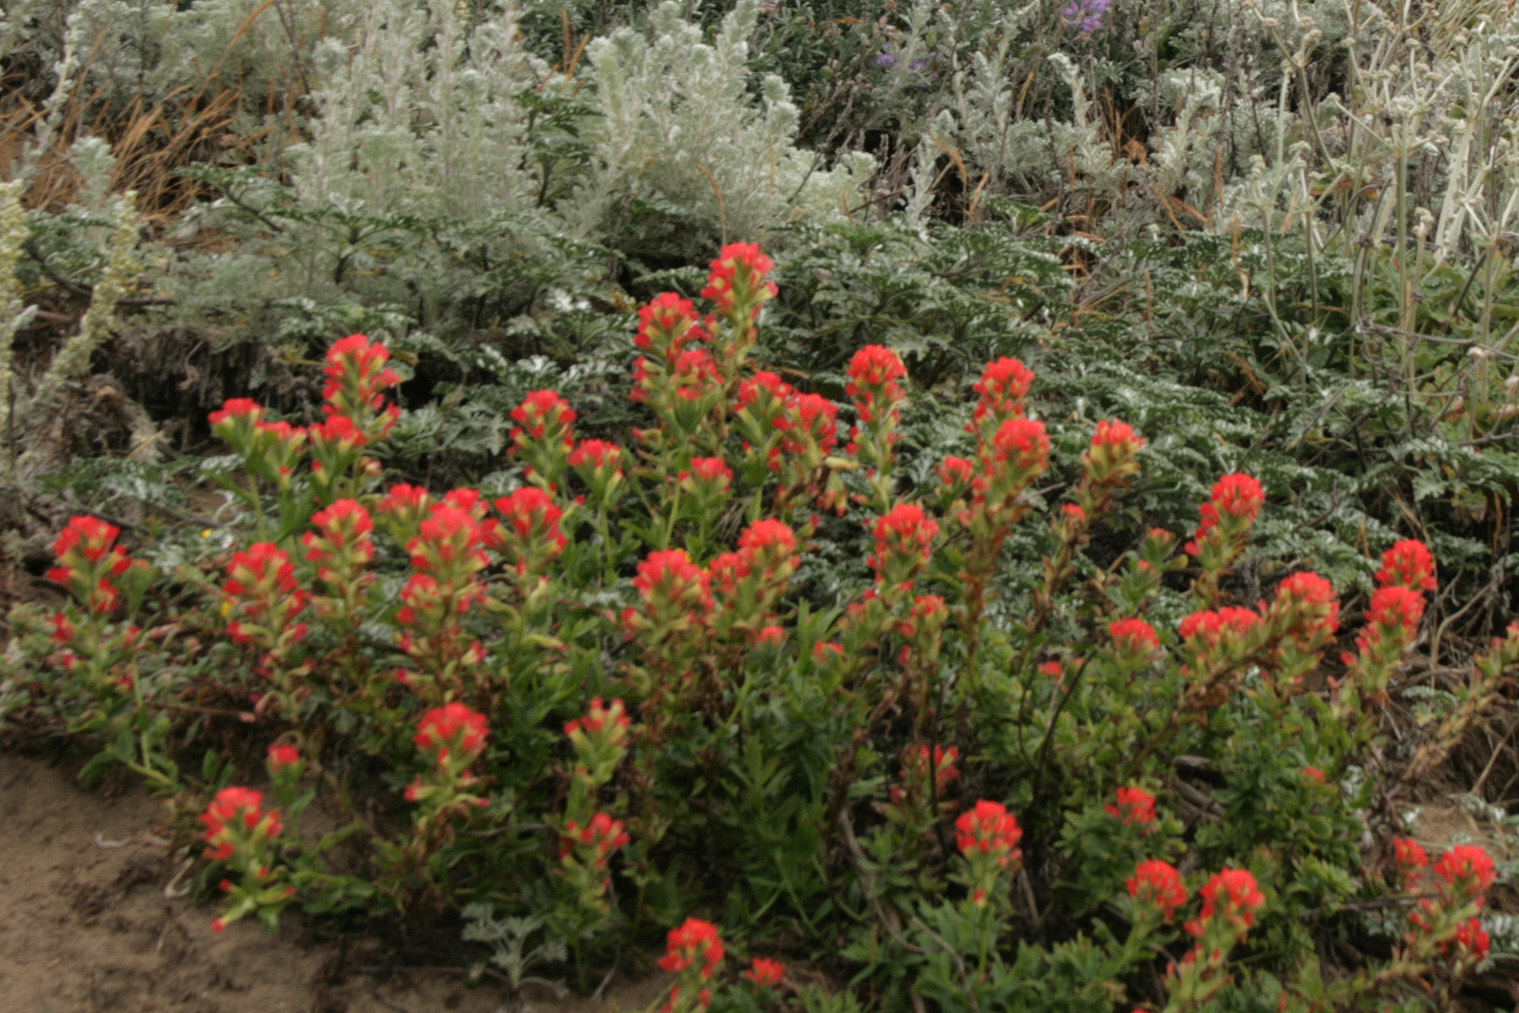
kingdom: Plantae
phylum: Tracheophyta
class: Magnoliopsida
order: Lamiales
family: Orobanchaceae
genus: Castilleja
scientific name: Castilleja
